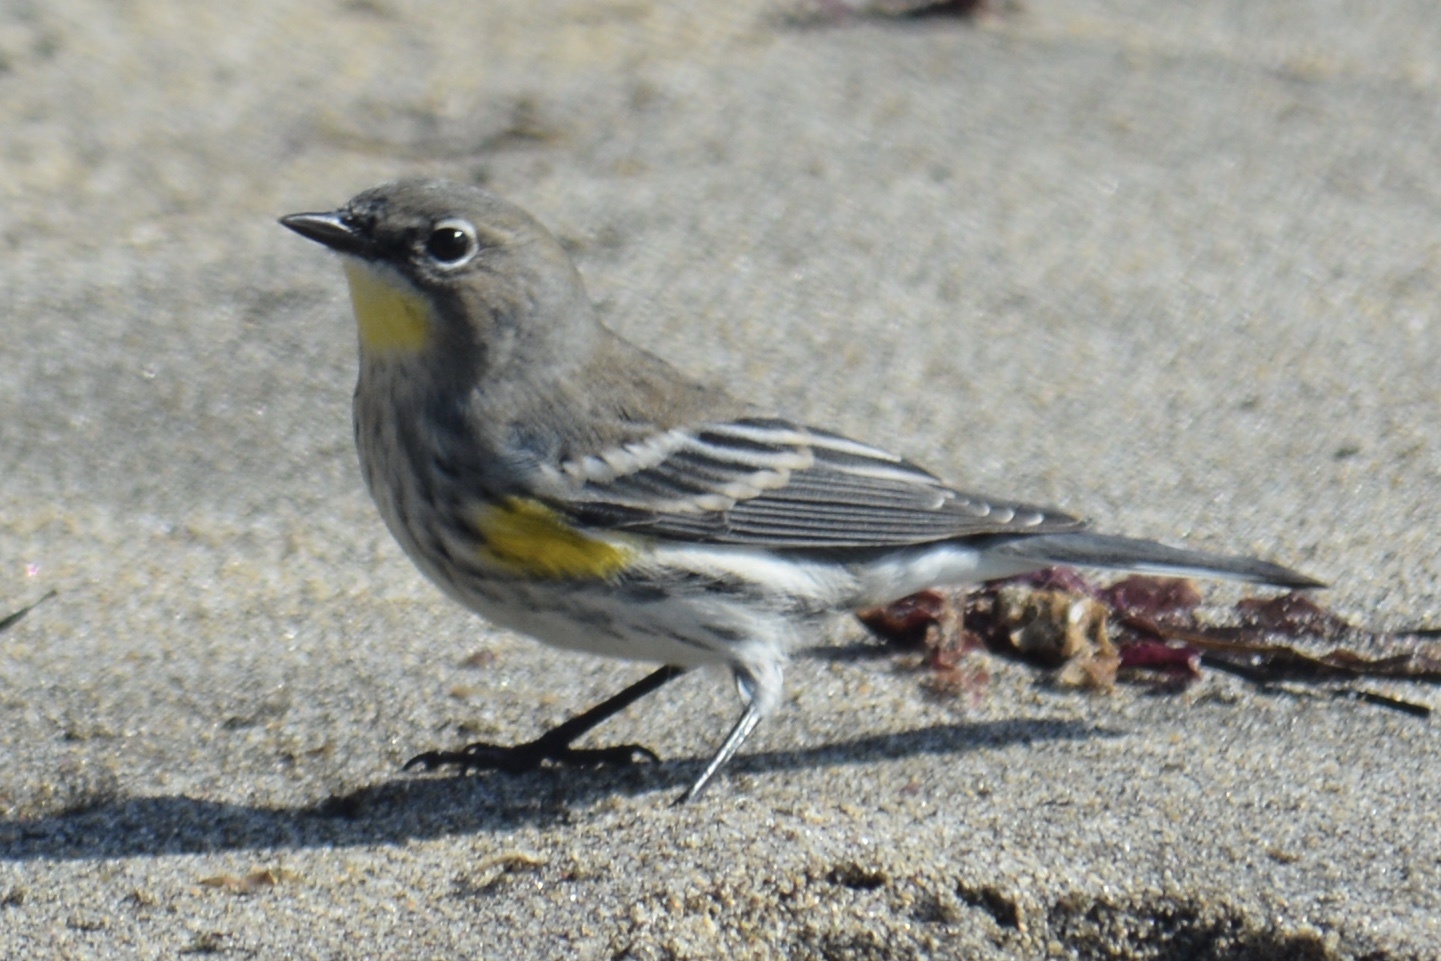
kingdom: Animalia
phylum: Chordata
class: Aves
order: Passeriformes
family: Parulidae
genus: Setophaga
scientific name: Setophaga coronata
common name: Myrtle warbler
